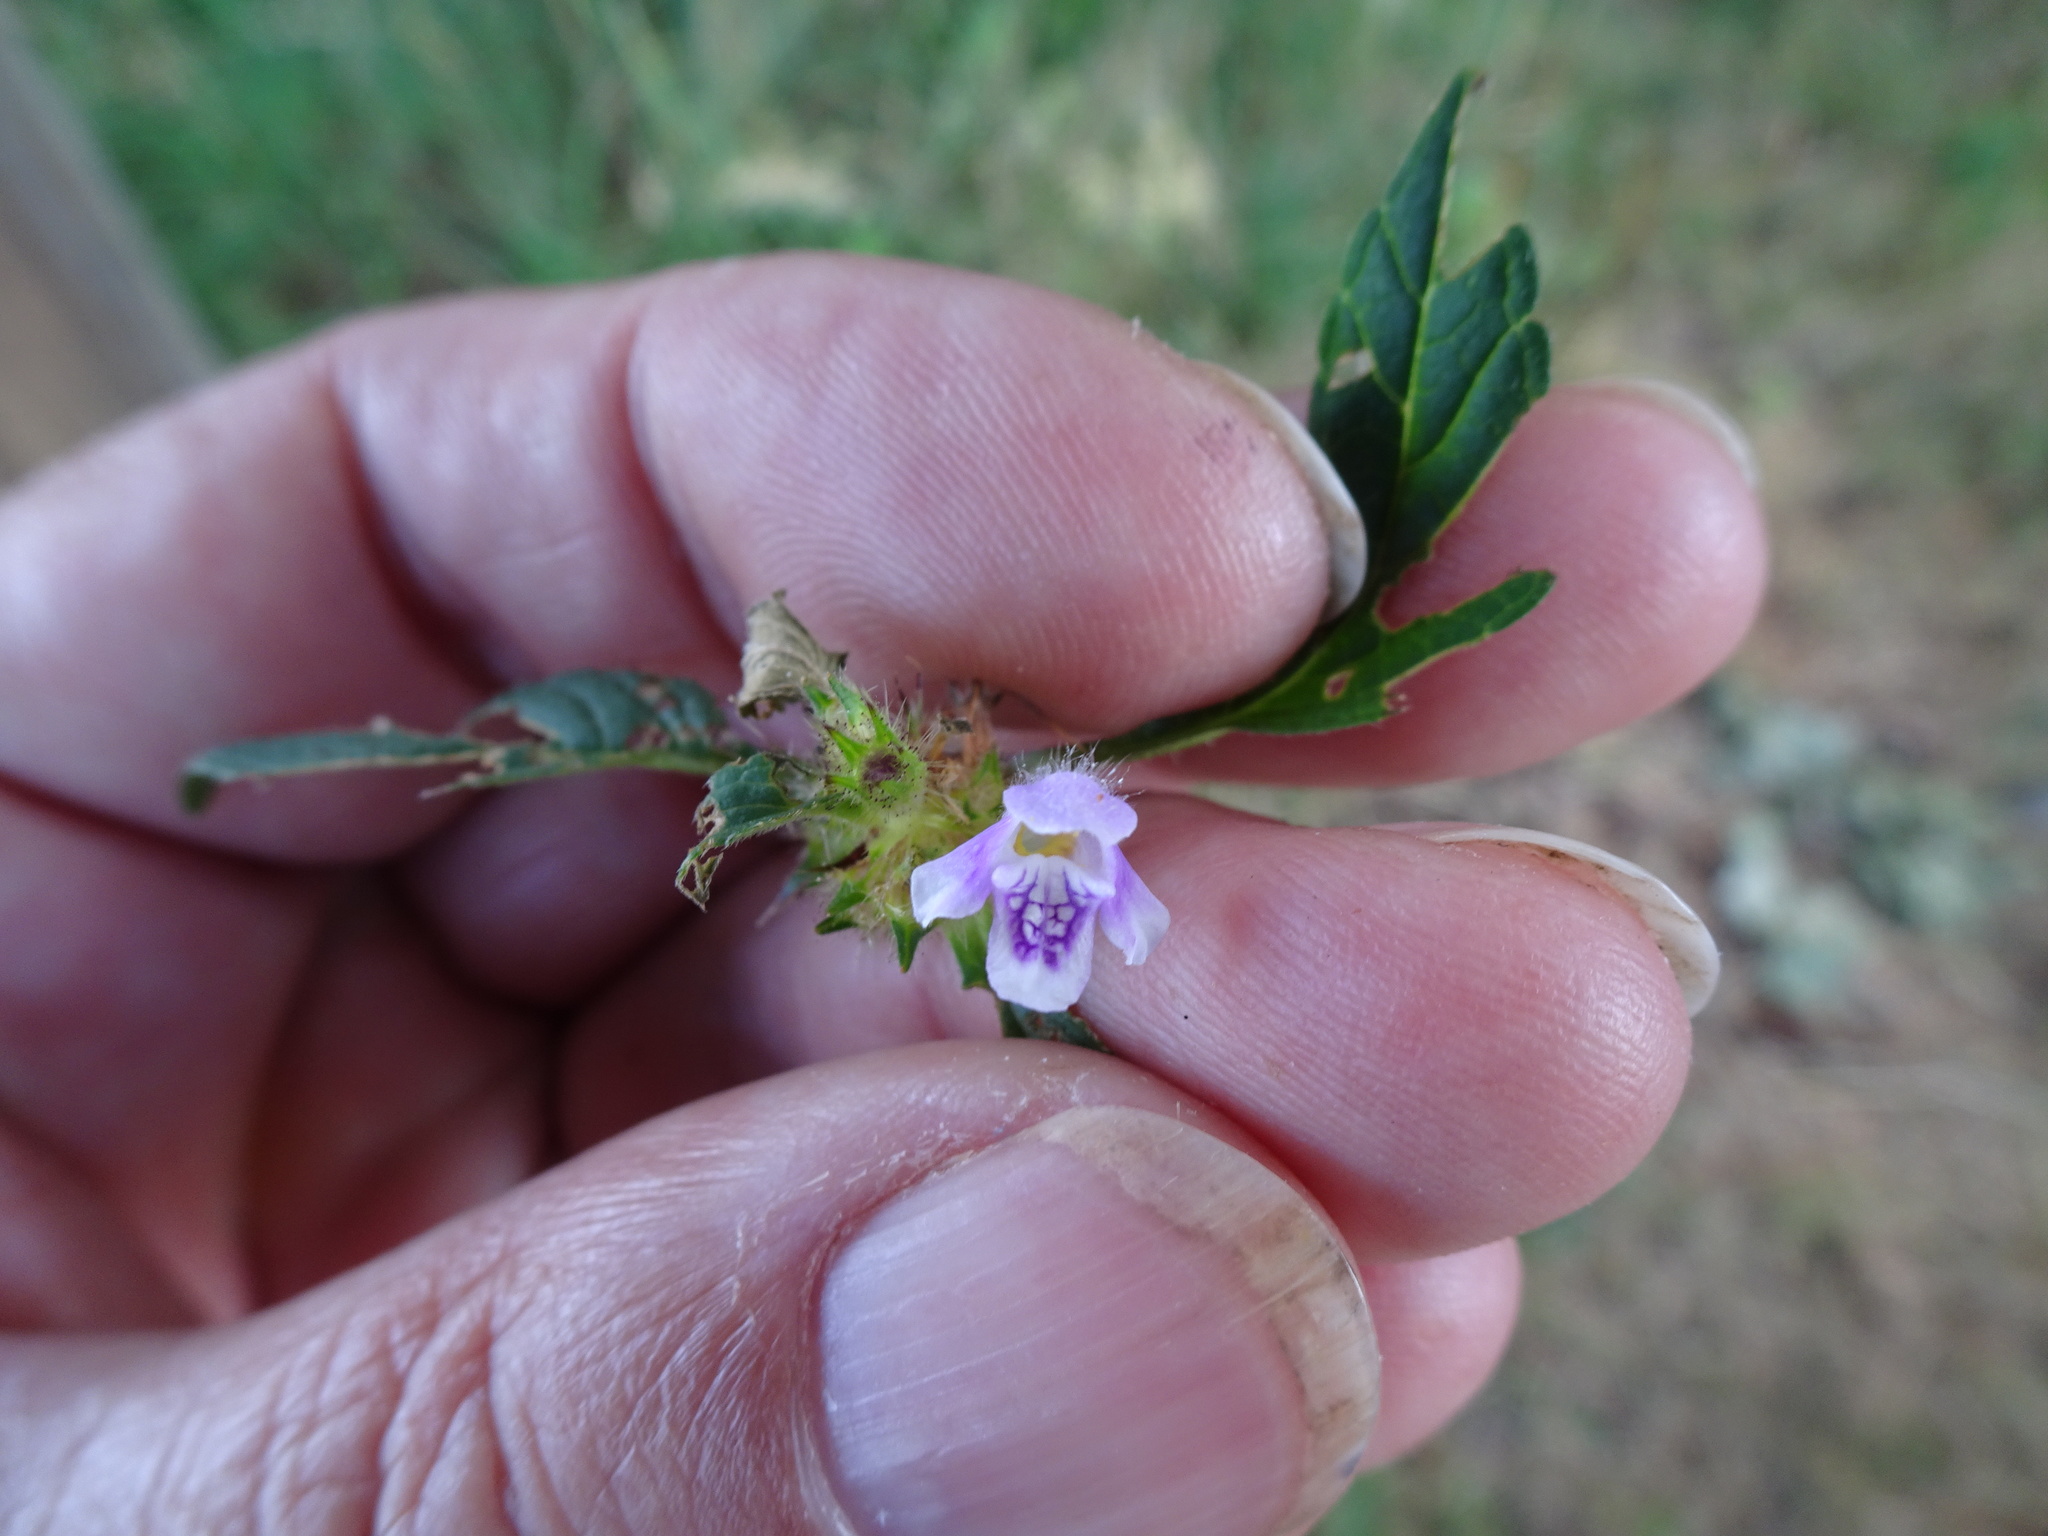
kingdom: Plantae
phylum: Tracheophyta
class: Magnoliopsida
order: Lamiales
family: Lamiaceae
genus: Galeopsis
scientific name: Galeopsis tetrahit
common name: Common hemp-nettle
